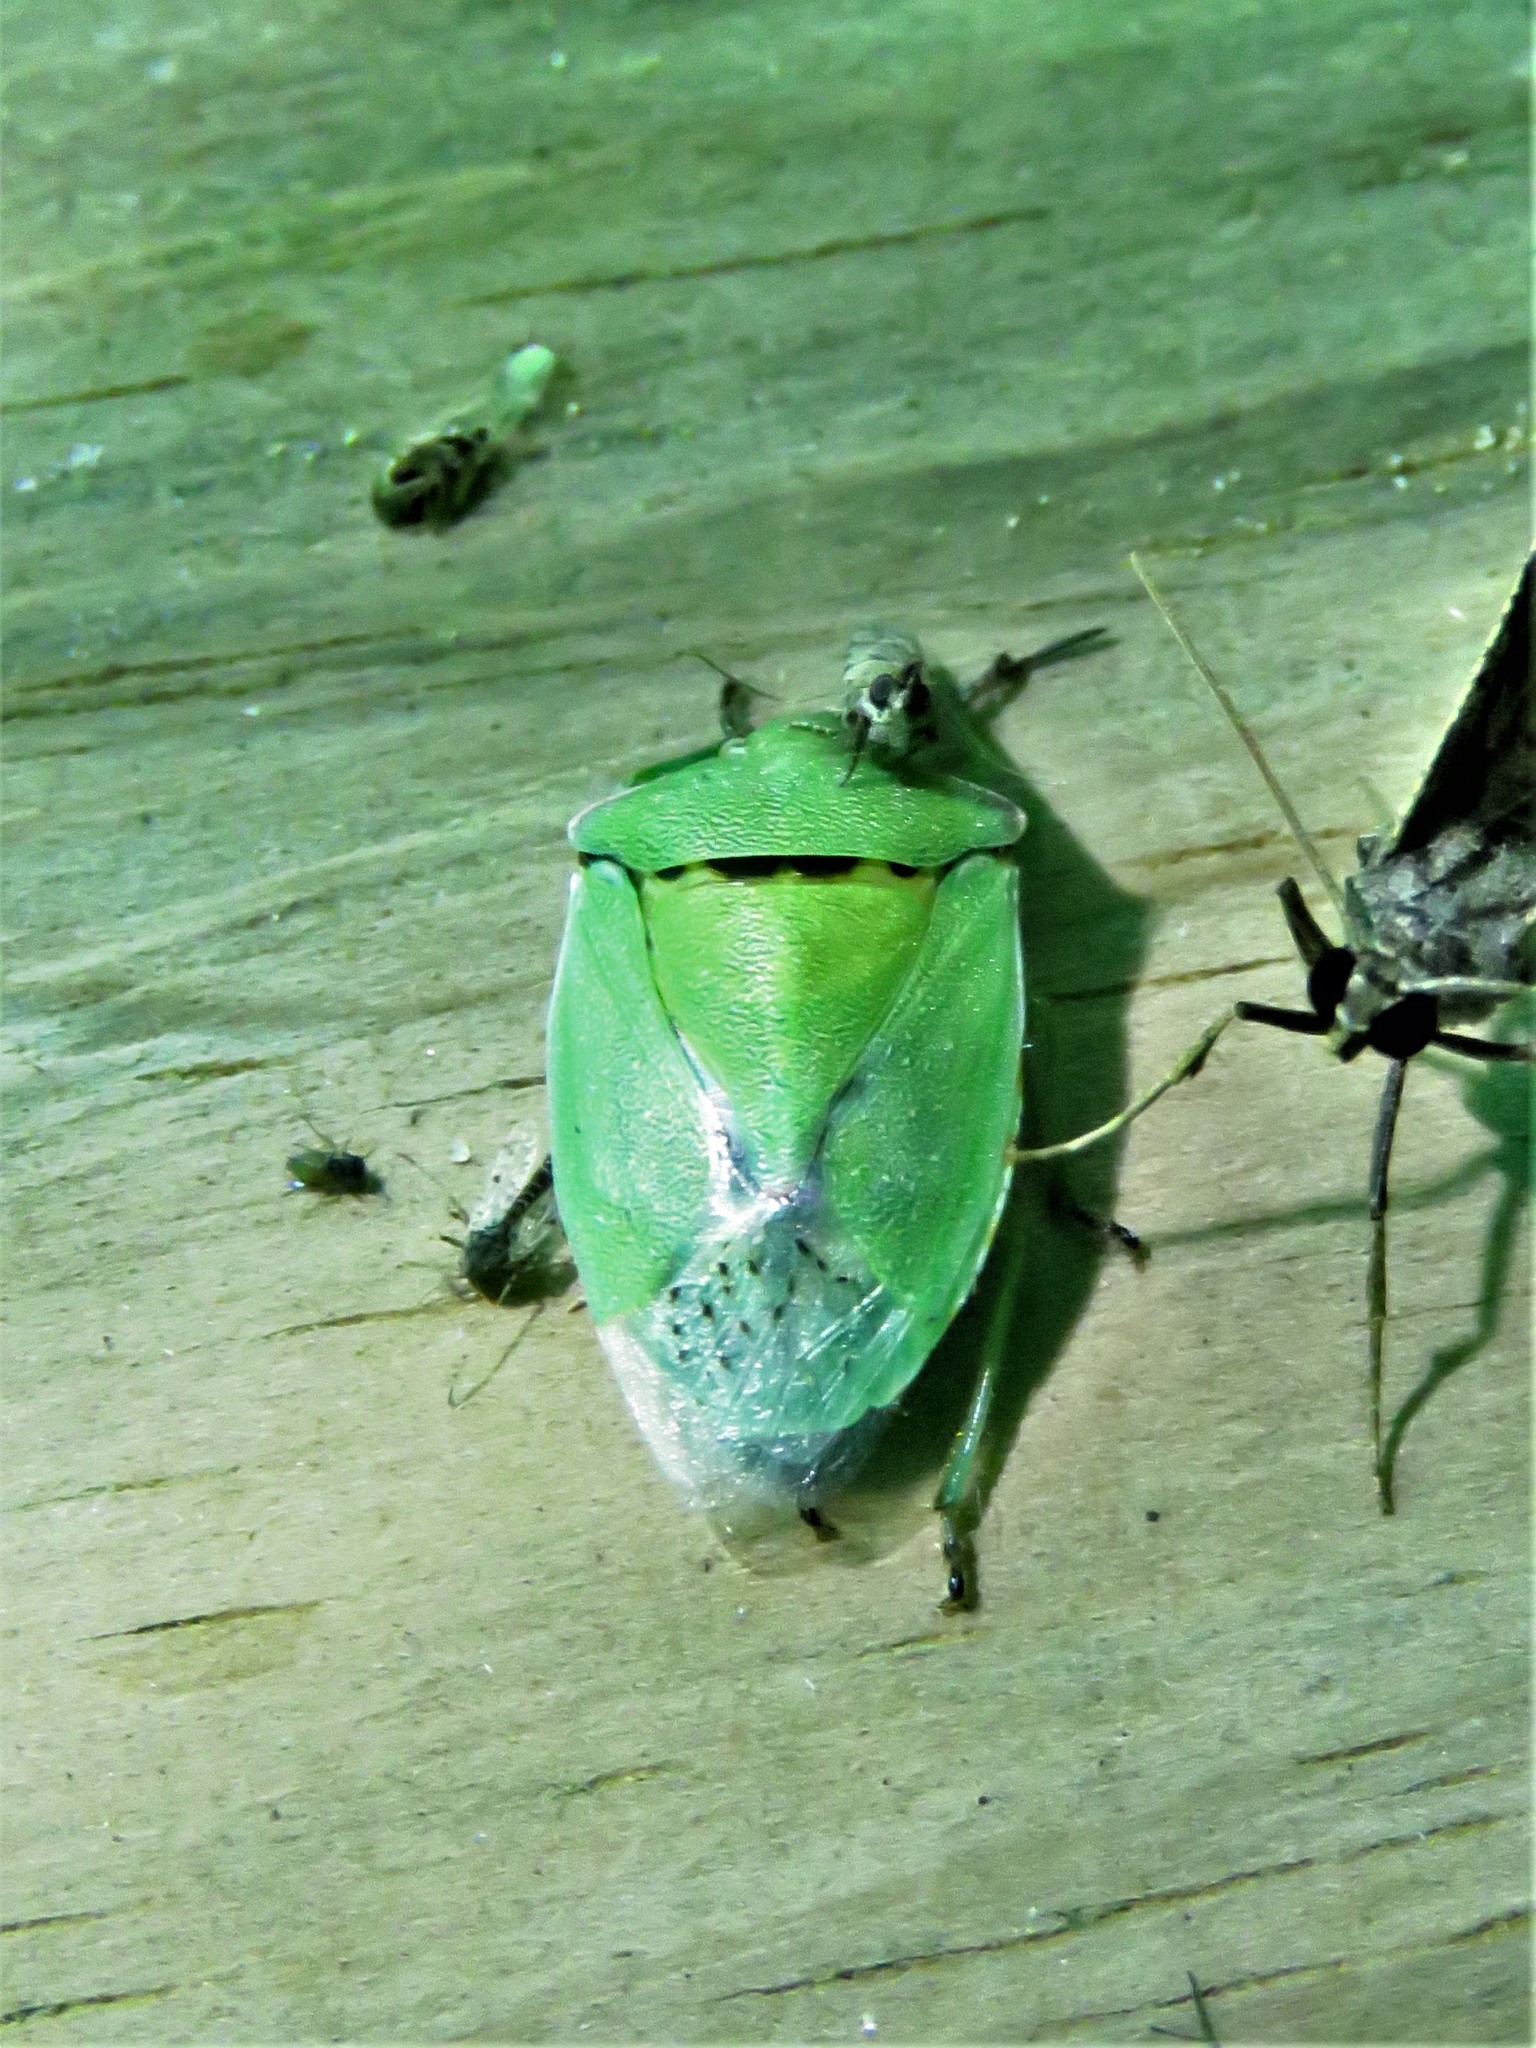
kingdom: Animalia
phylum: Arthropoda
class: Insecta
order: Hemiptera
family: Pentatomidae
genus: Chinavia
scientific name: Chinavia hilaris
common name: Green stink bug
